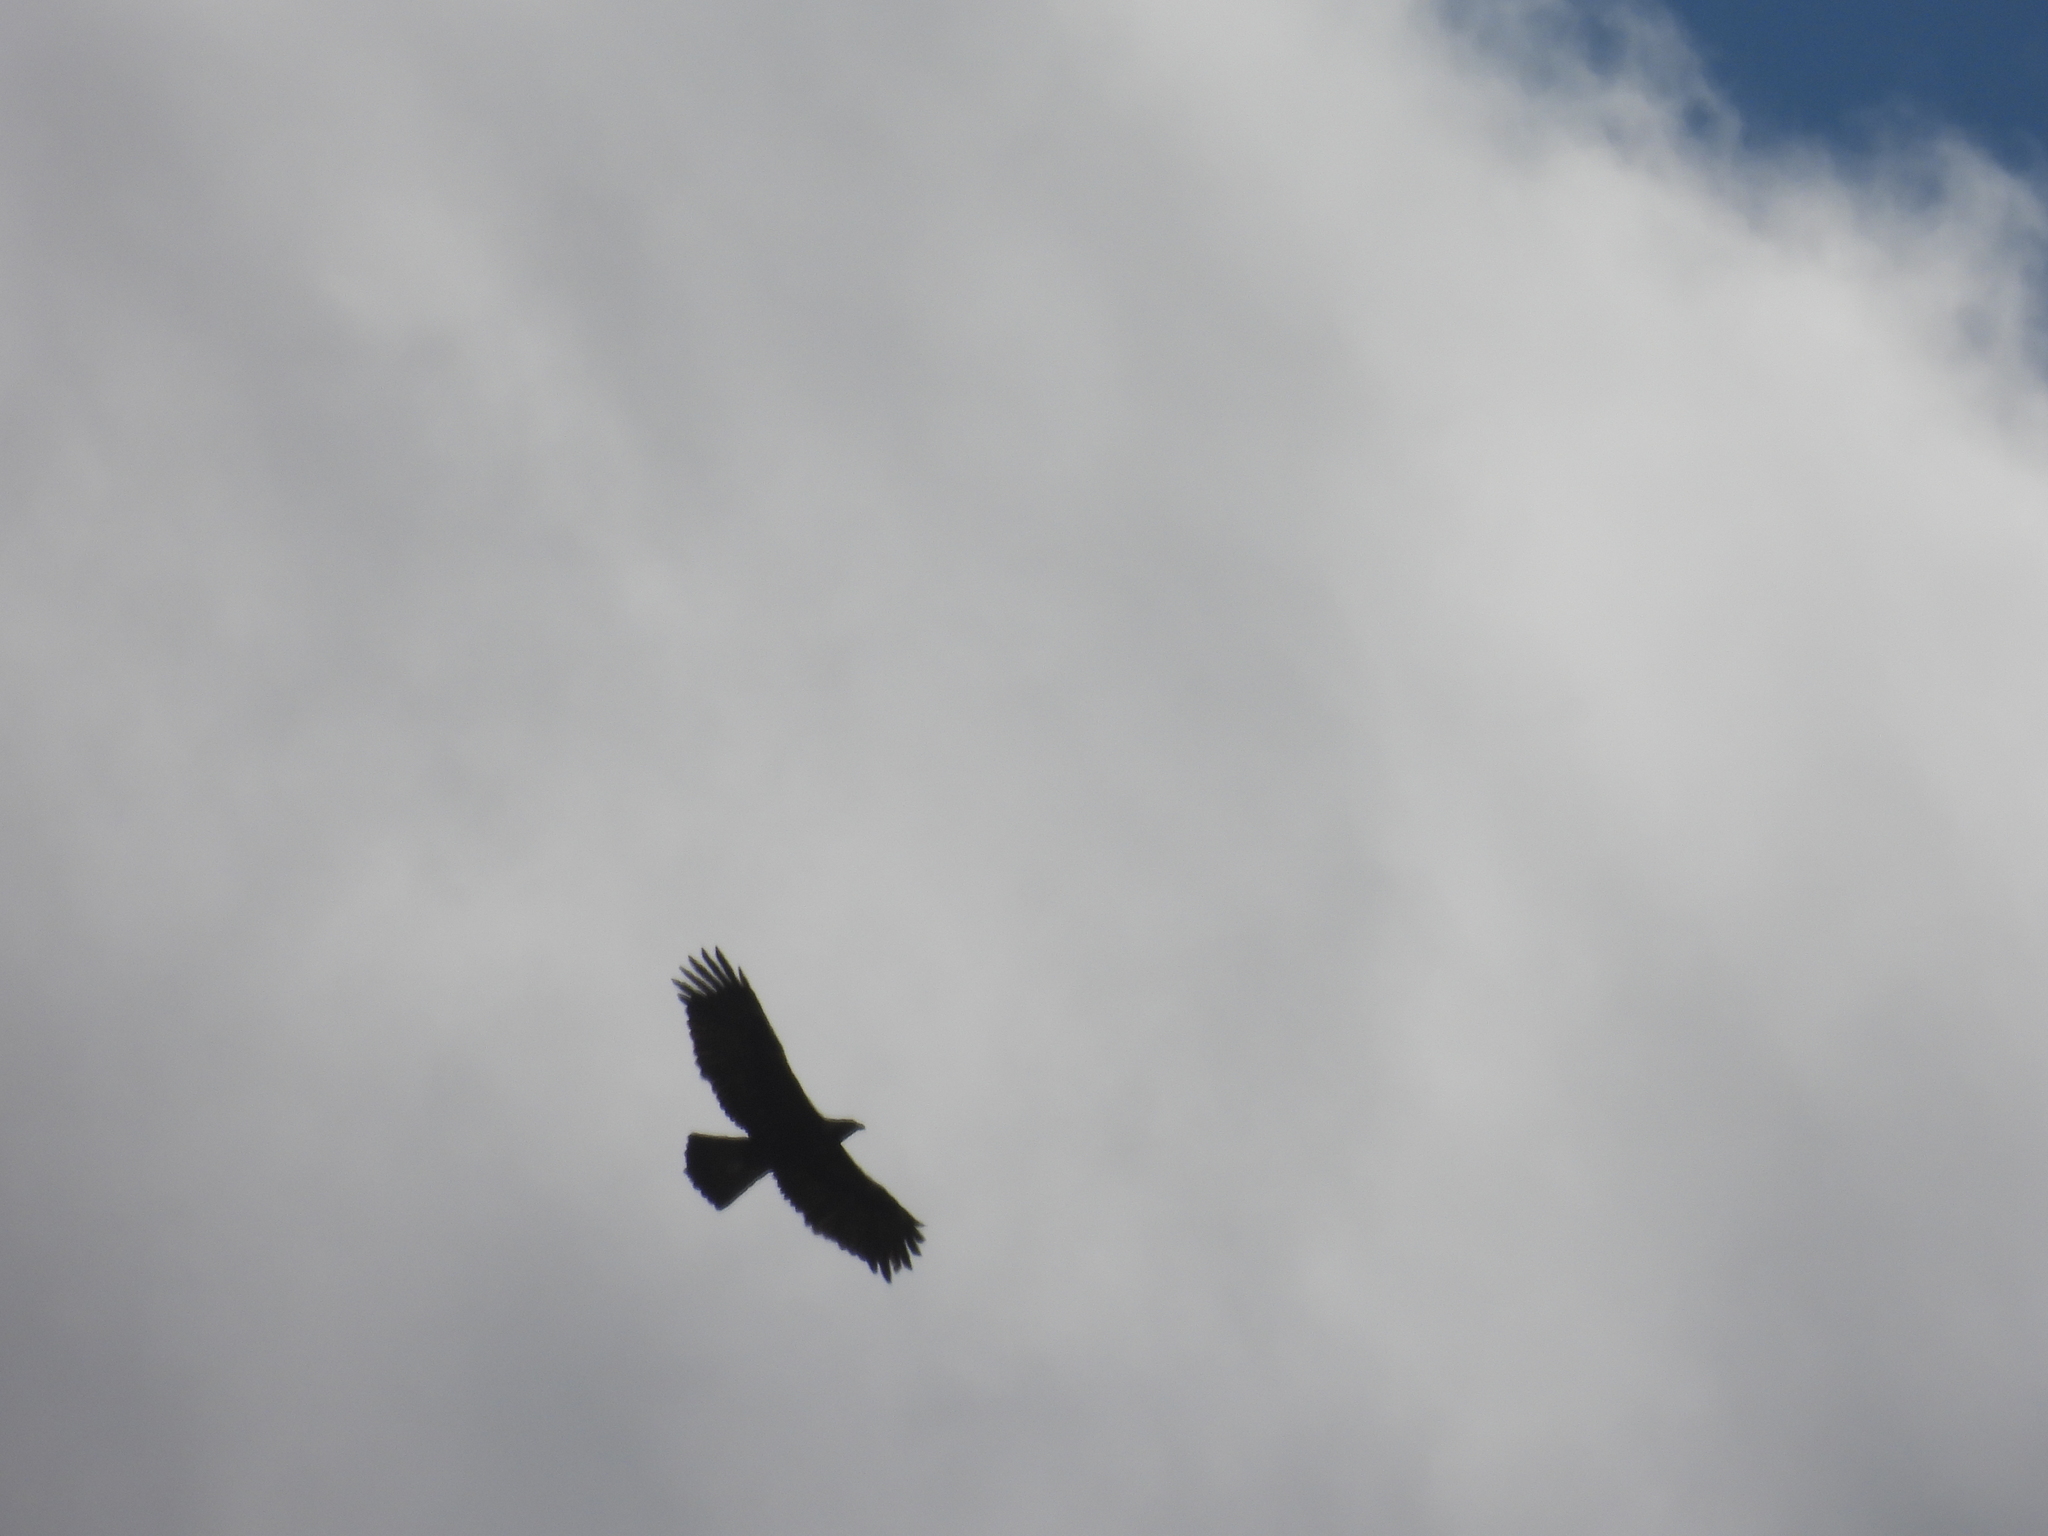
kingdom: Animalia
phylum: Chordata
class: Aves
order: Accipitriformes
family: Accipitridae
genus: Aquila
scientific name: Aquila chrysaetos
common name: Golden eagle
